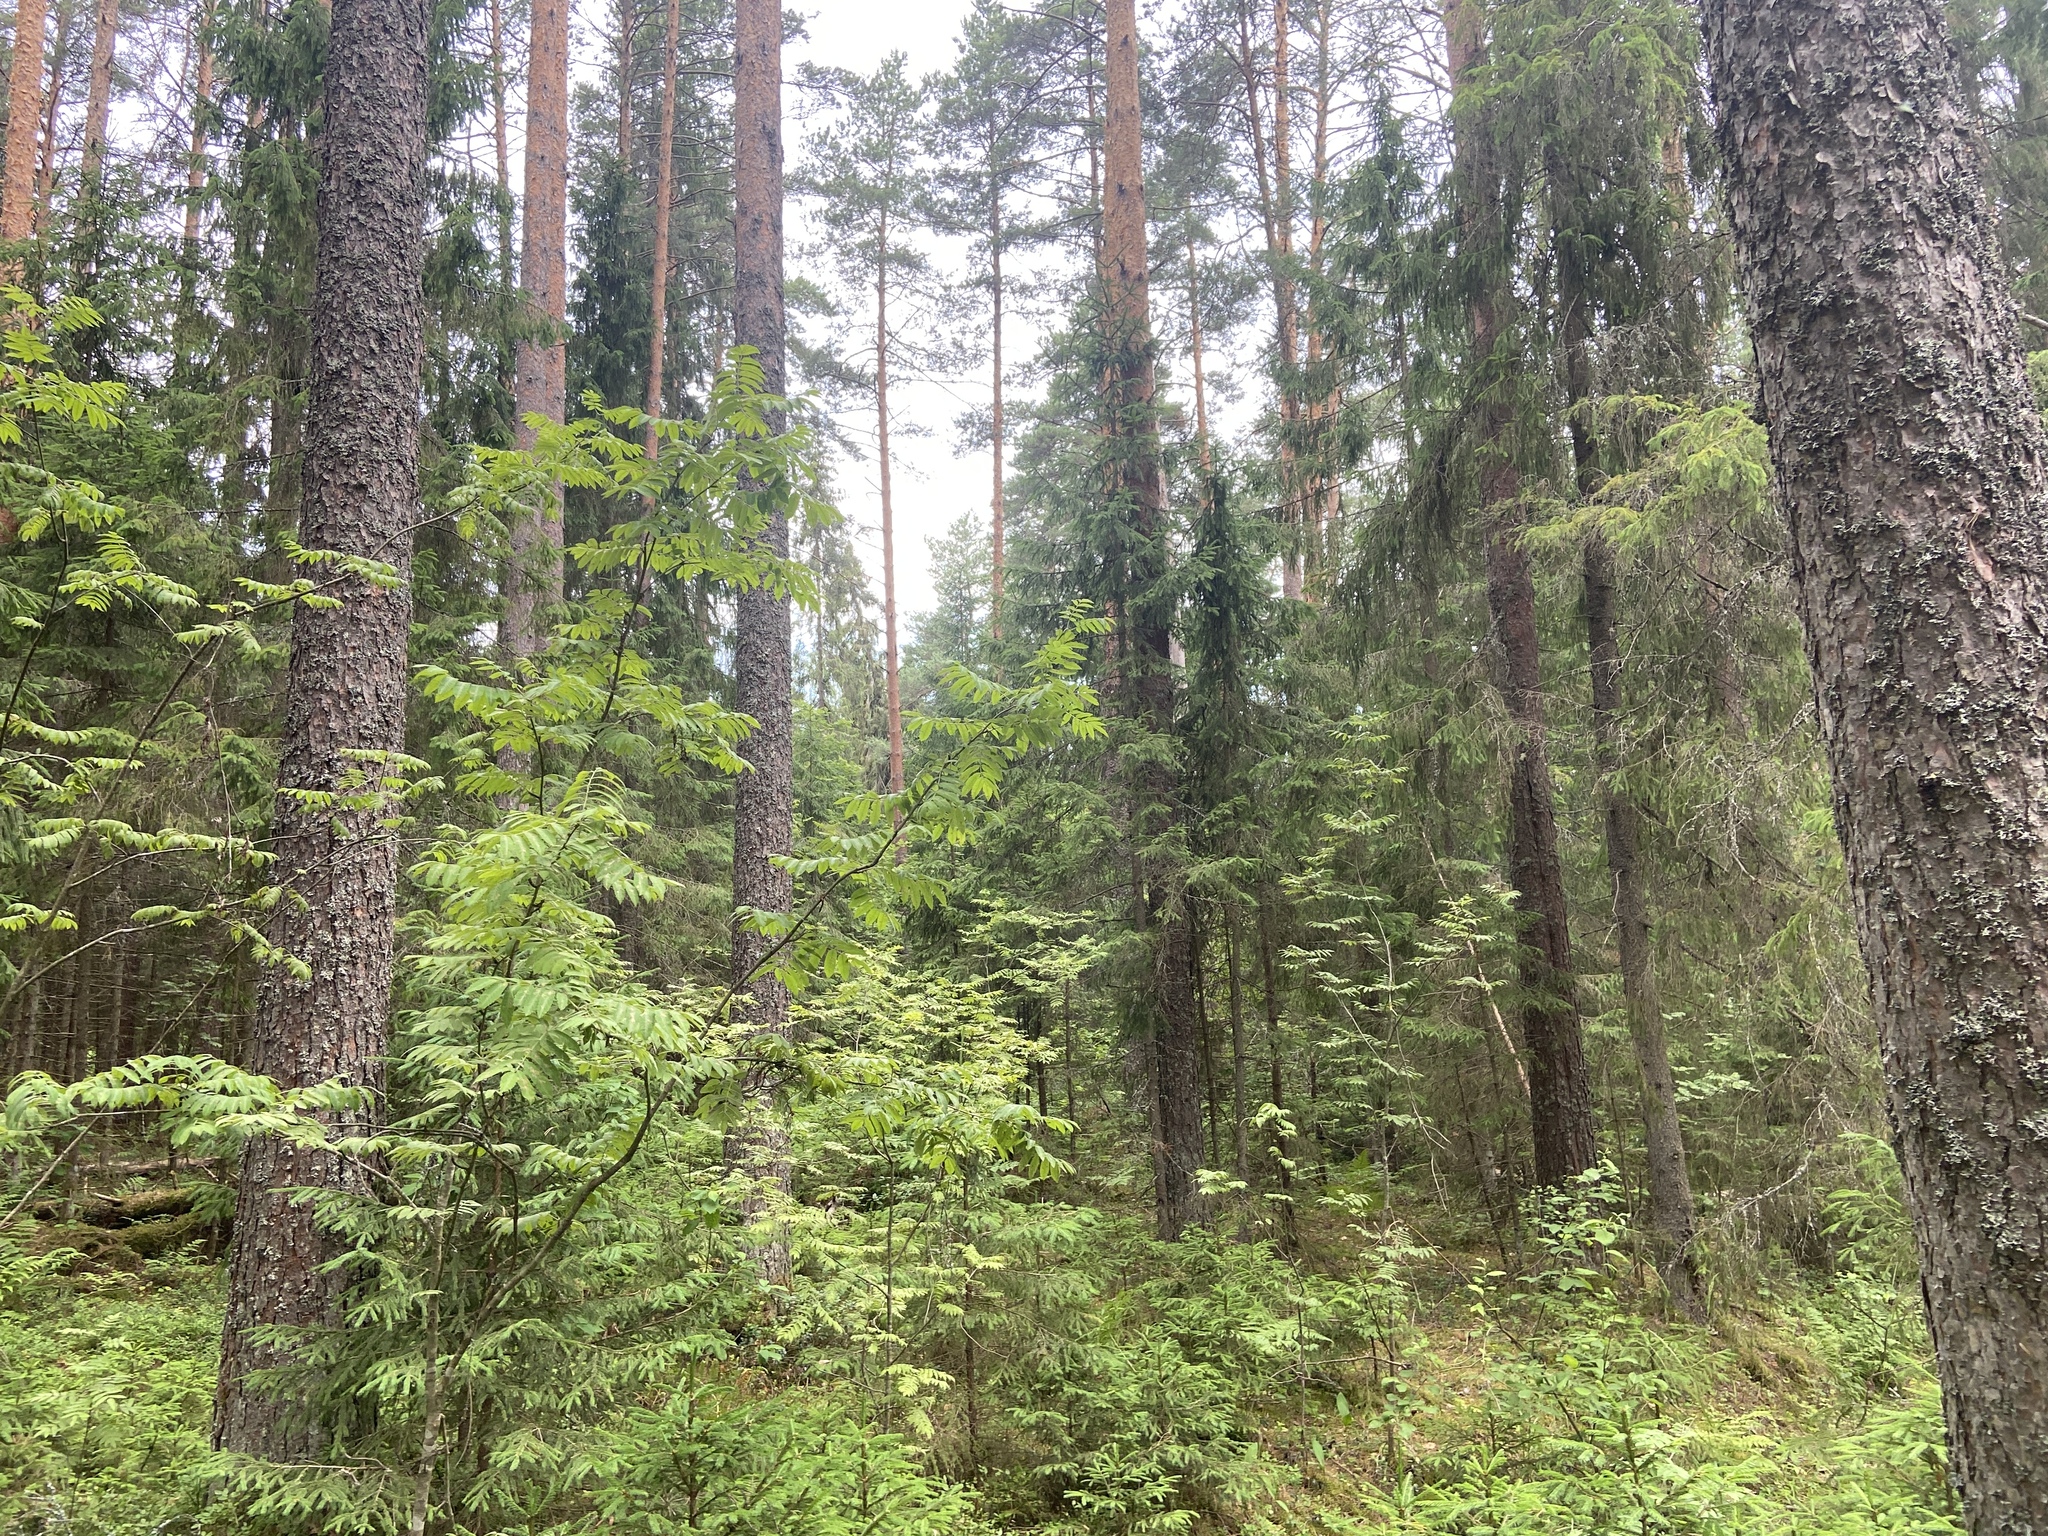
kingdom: Plantae
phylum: Tracheophyta
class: Magnoliopsida
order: Rosales
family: Rosaceae
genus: Sorbus
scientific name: Sorbus aucuparia
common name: Rowan
